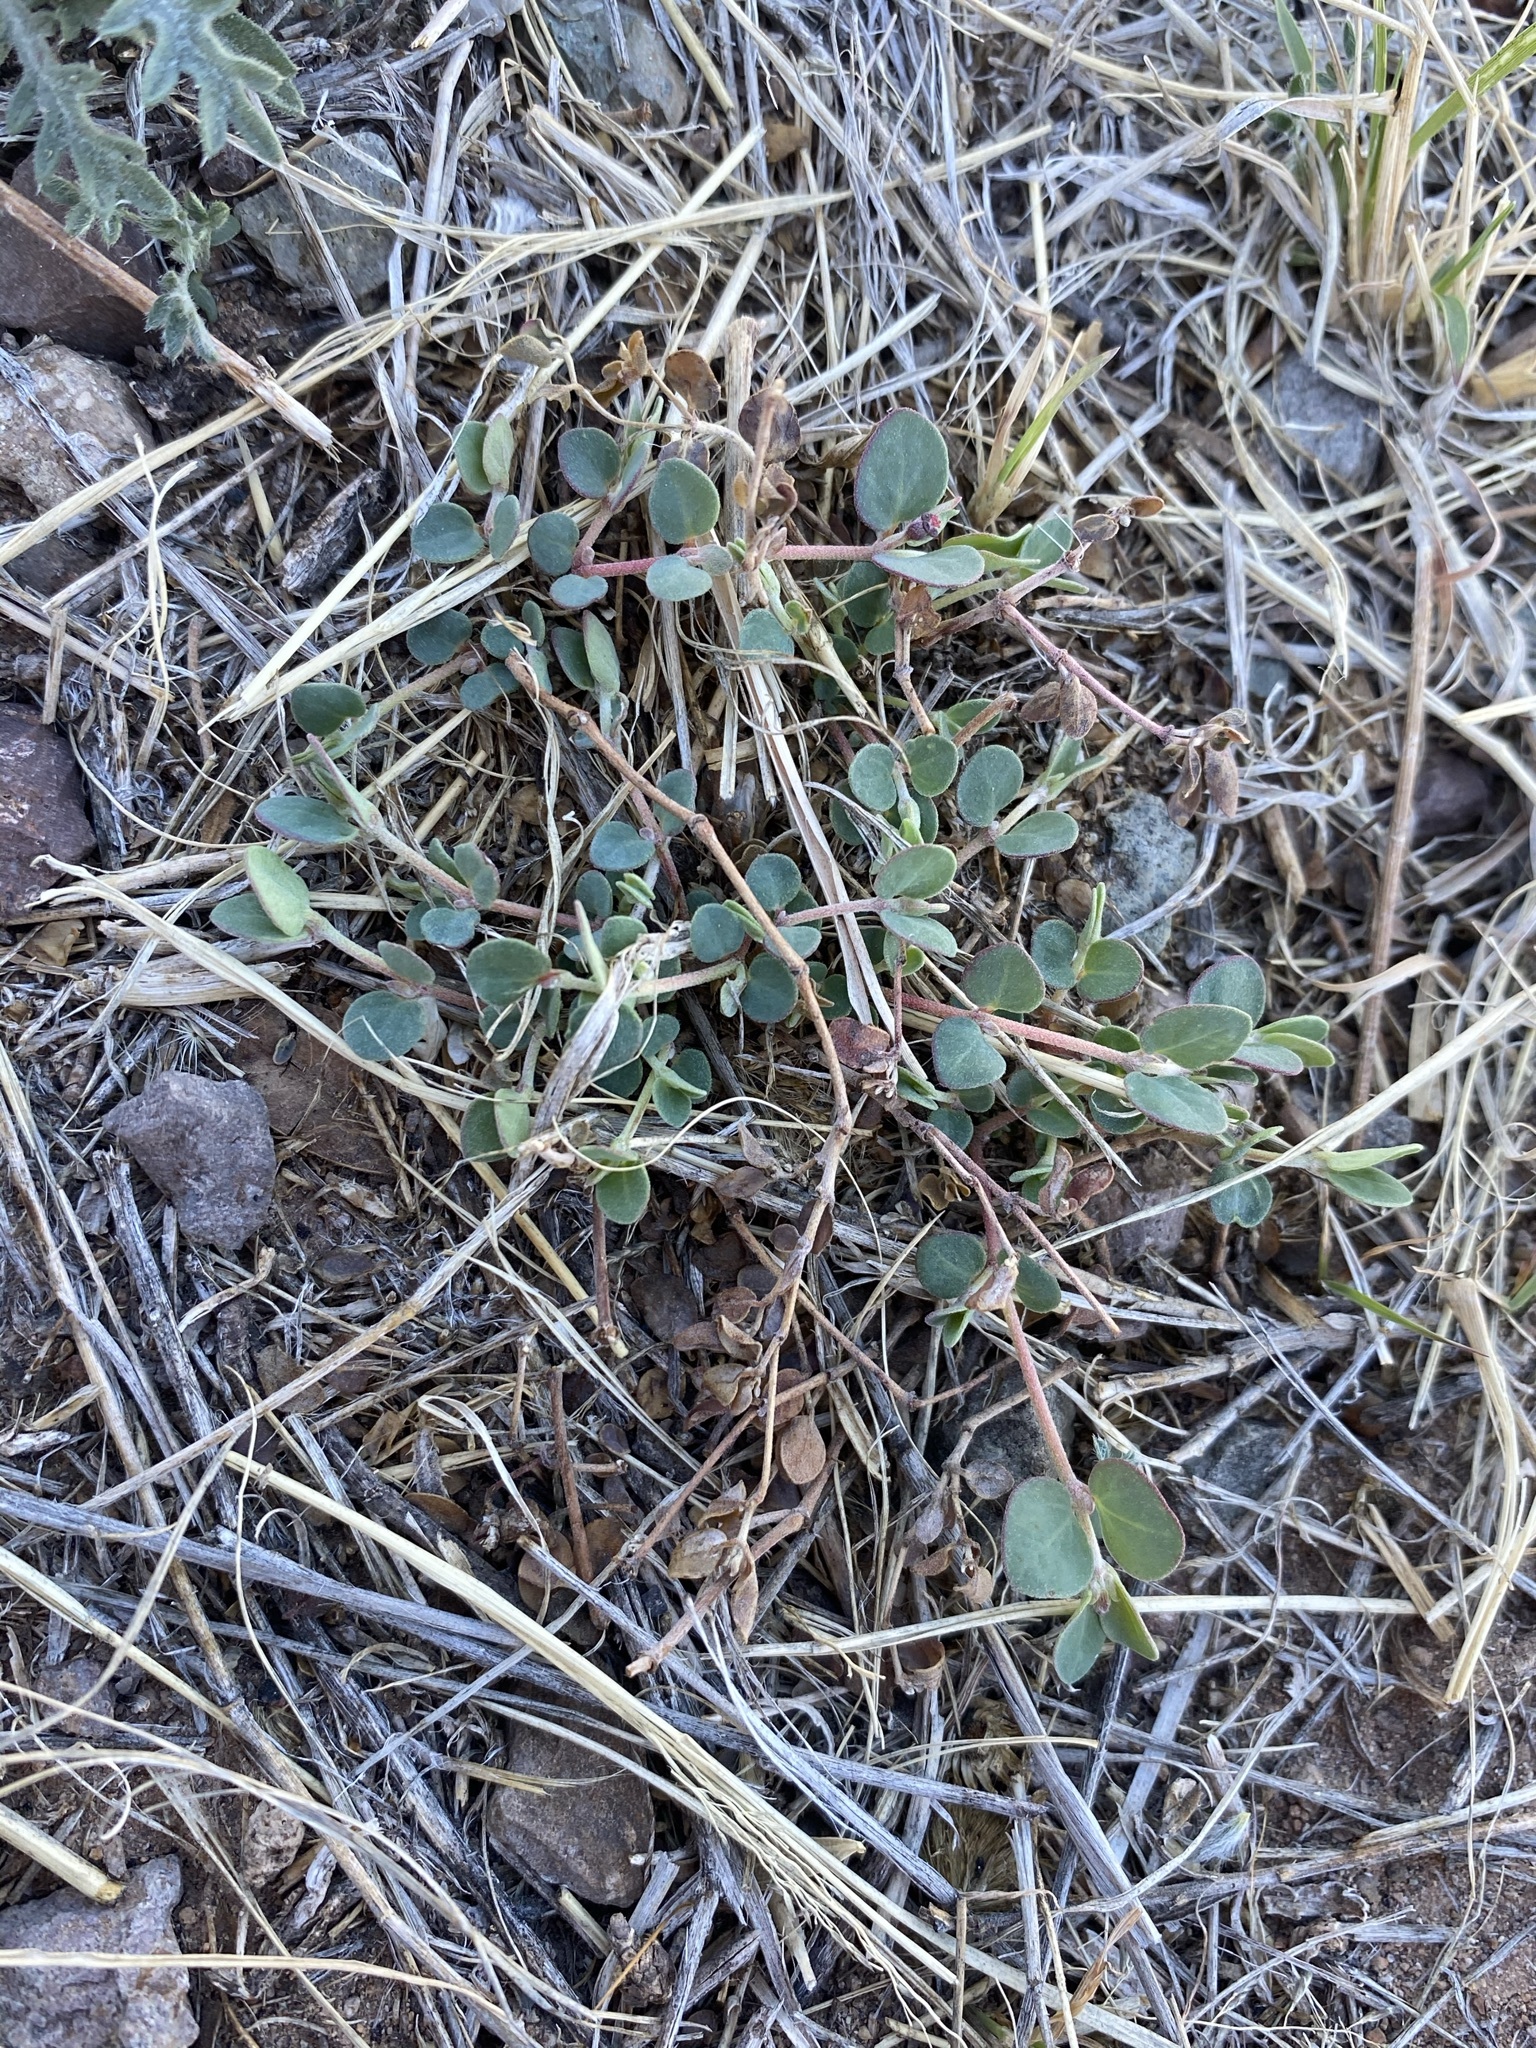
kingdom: Plantae
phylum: Tracheophyta
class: Magnoliopsida
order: Malpighiales
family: Euphorbiaceae
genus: Euphorbia
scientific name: Euphorbia cinerascens
